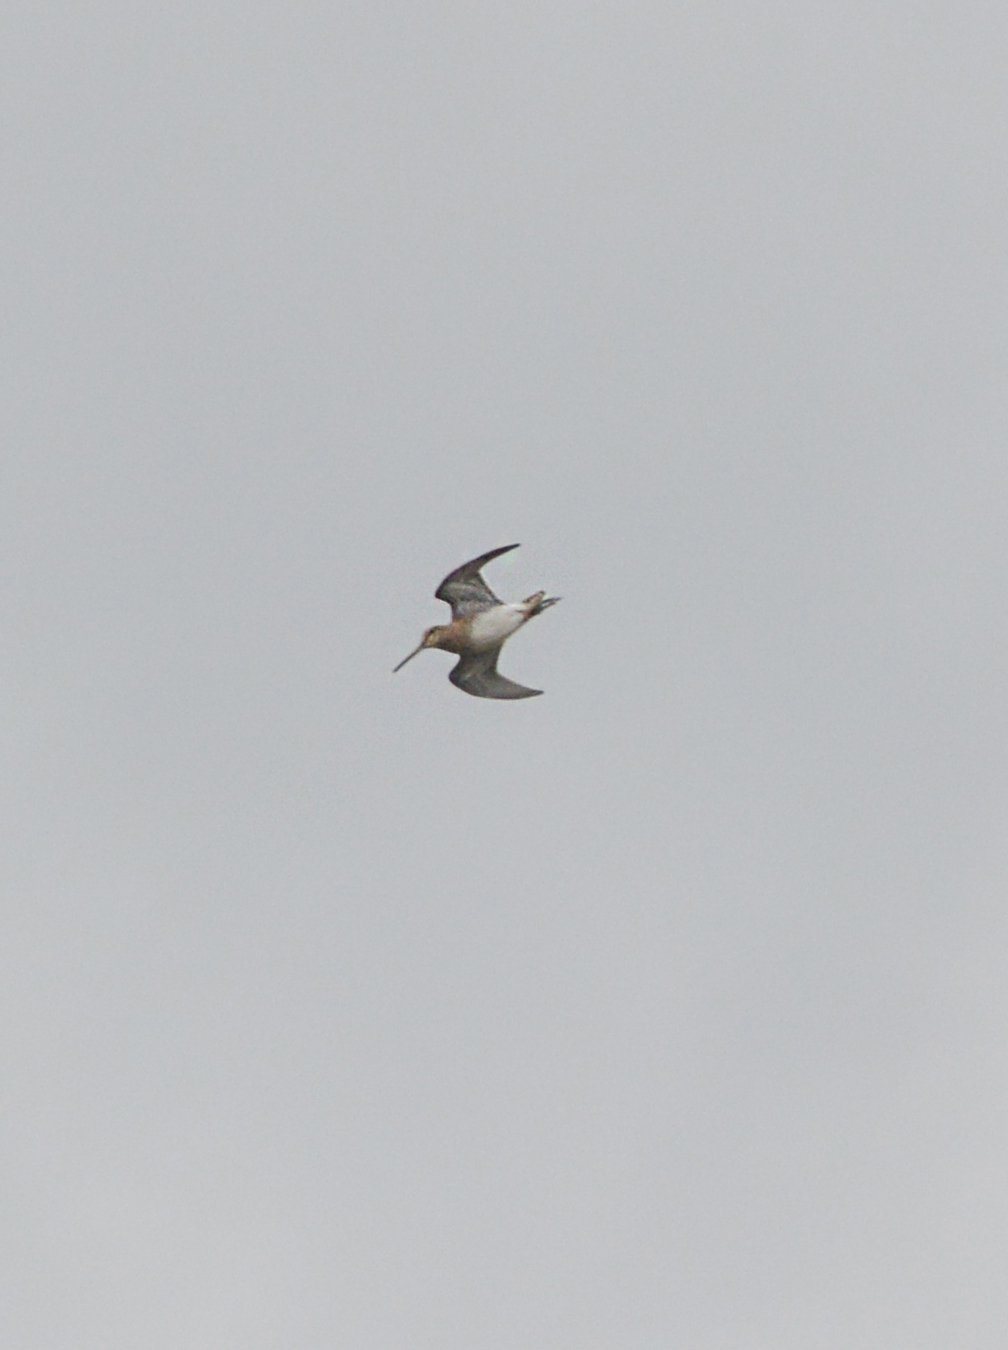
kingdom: Animalia
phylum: Chordata
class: Aves
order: Charadriiformes
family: Scolopacidae
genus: Gallinago
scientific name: Gallinago gallinago
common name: Common snipe
